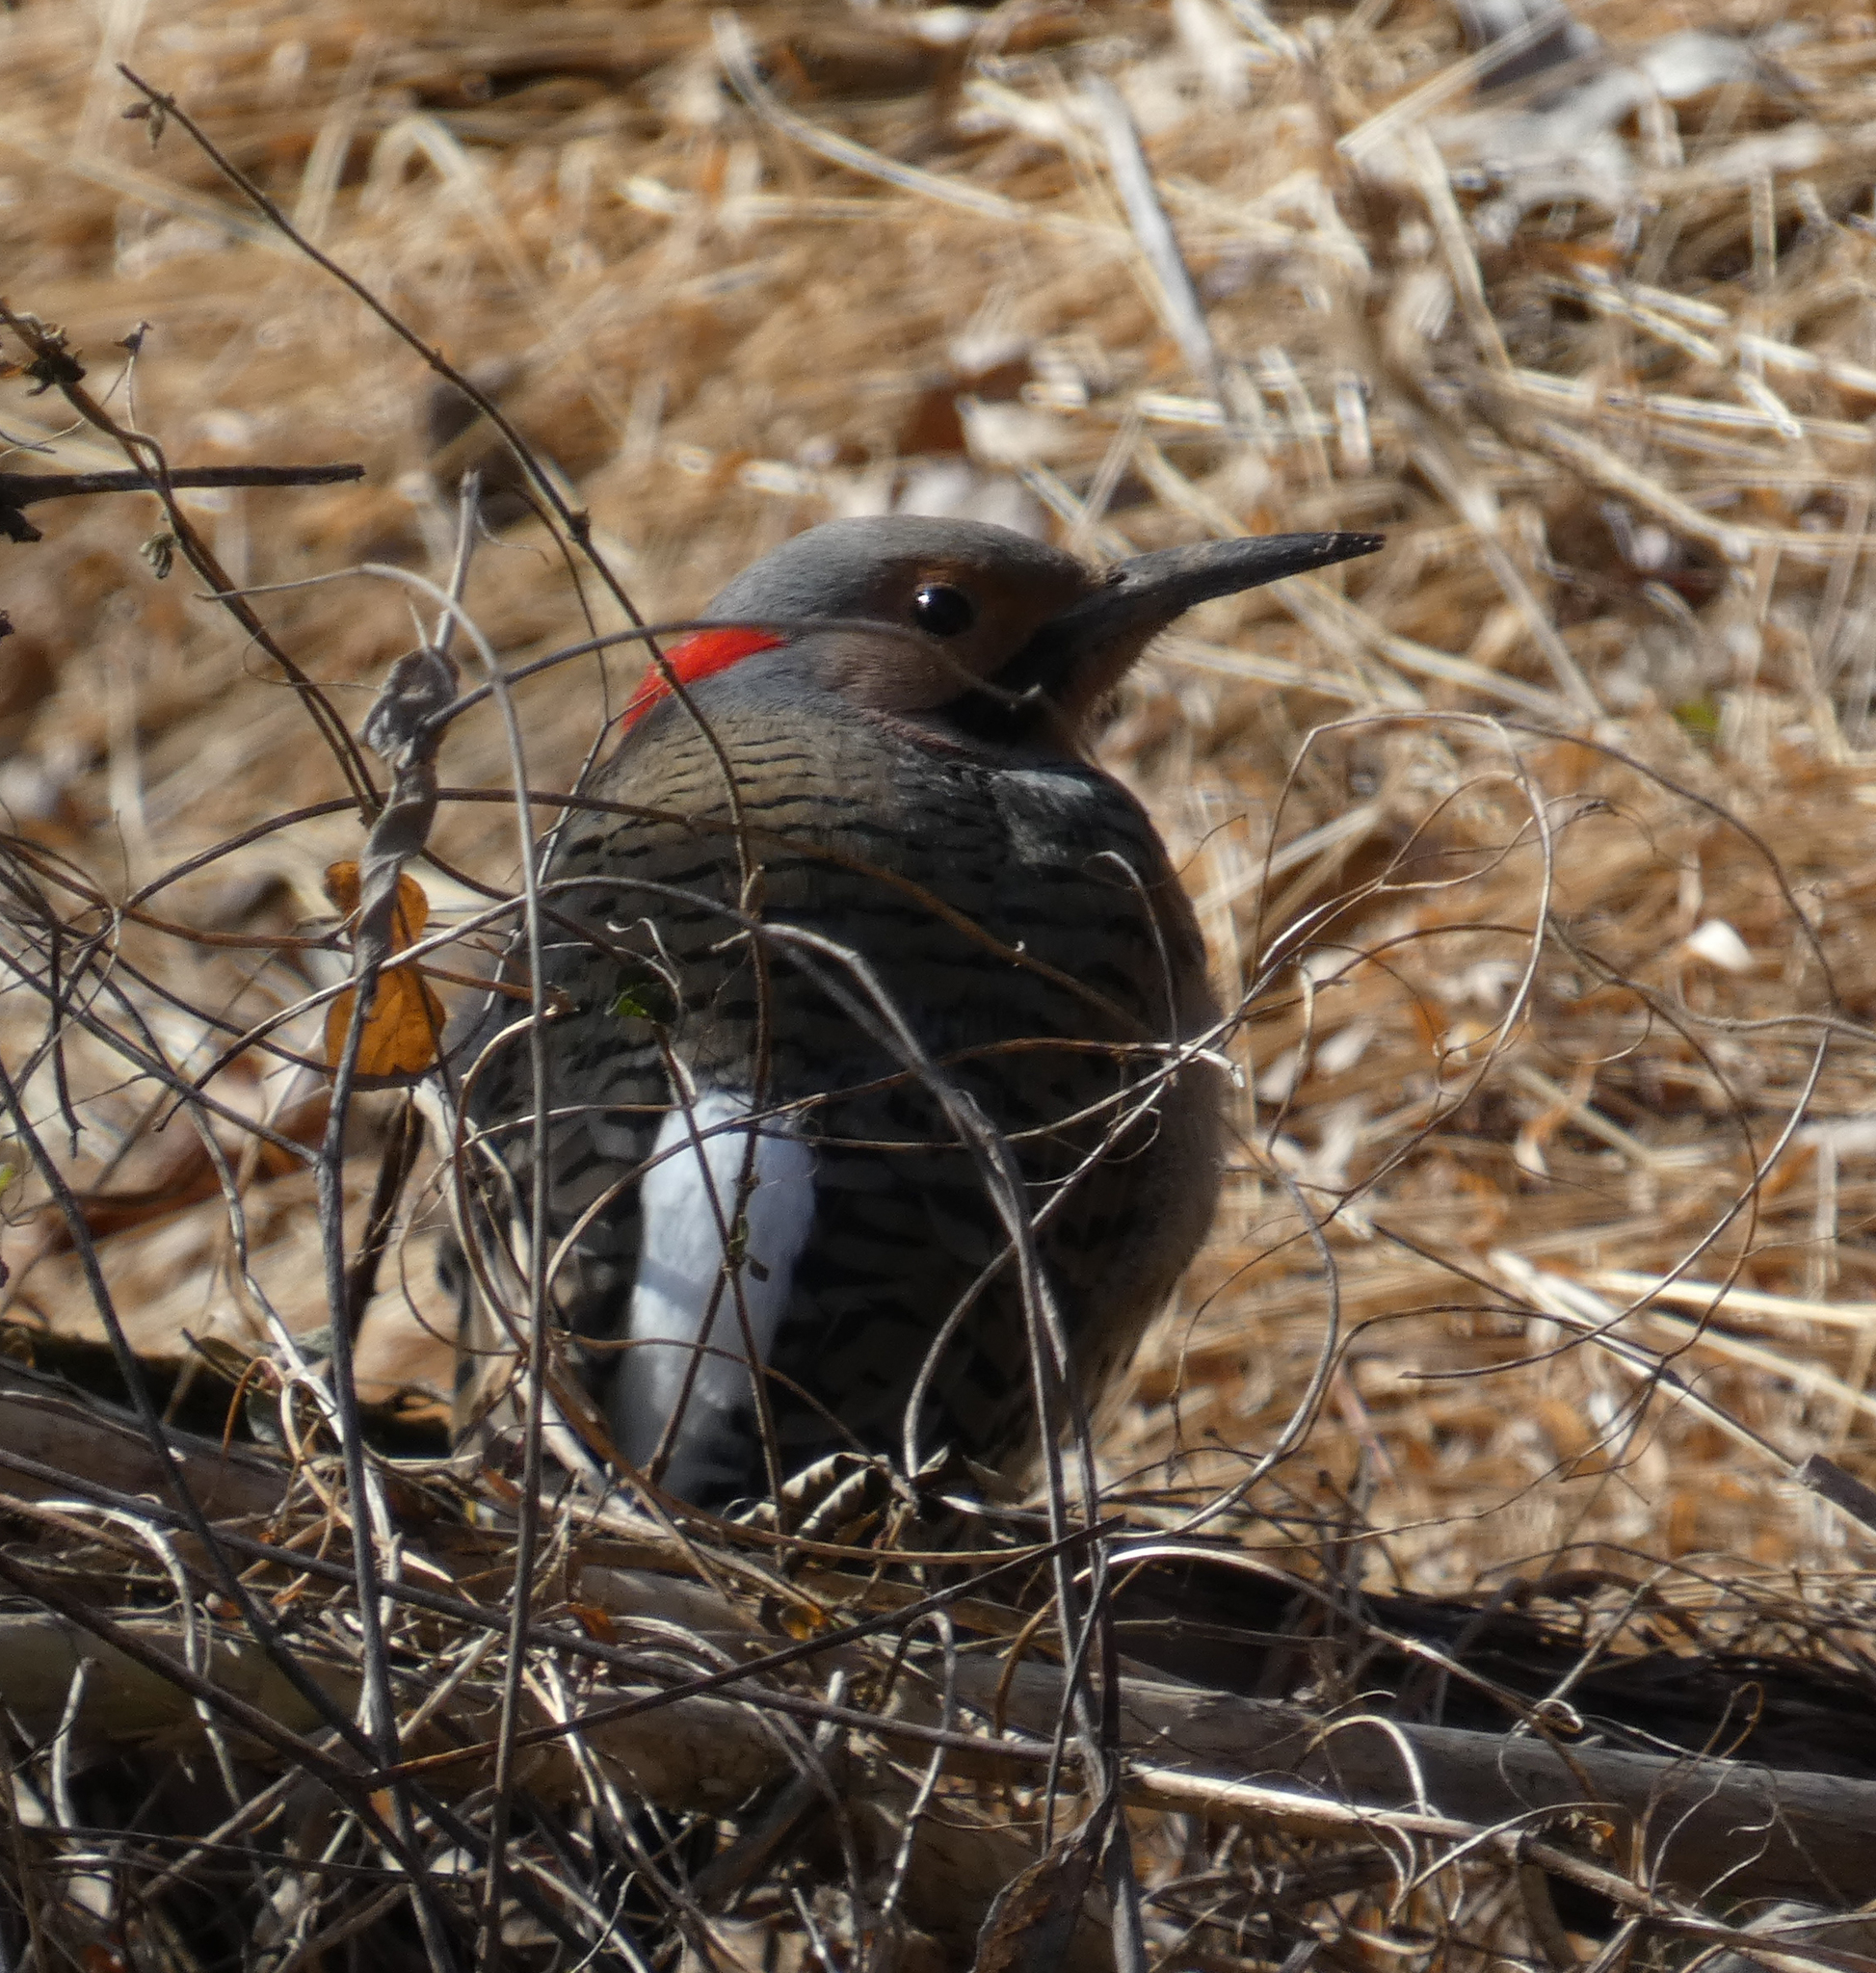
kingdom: Animalia
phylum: Chordata
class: Aves
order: Piciformes
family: Picidae
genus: Colaptes
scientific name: Colaptes auratus
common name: Northern flicker
